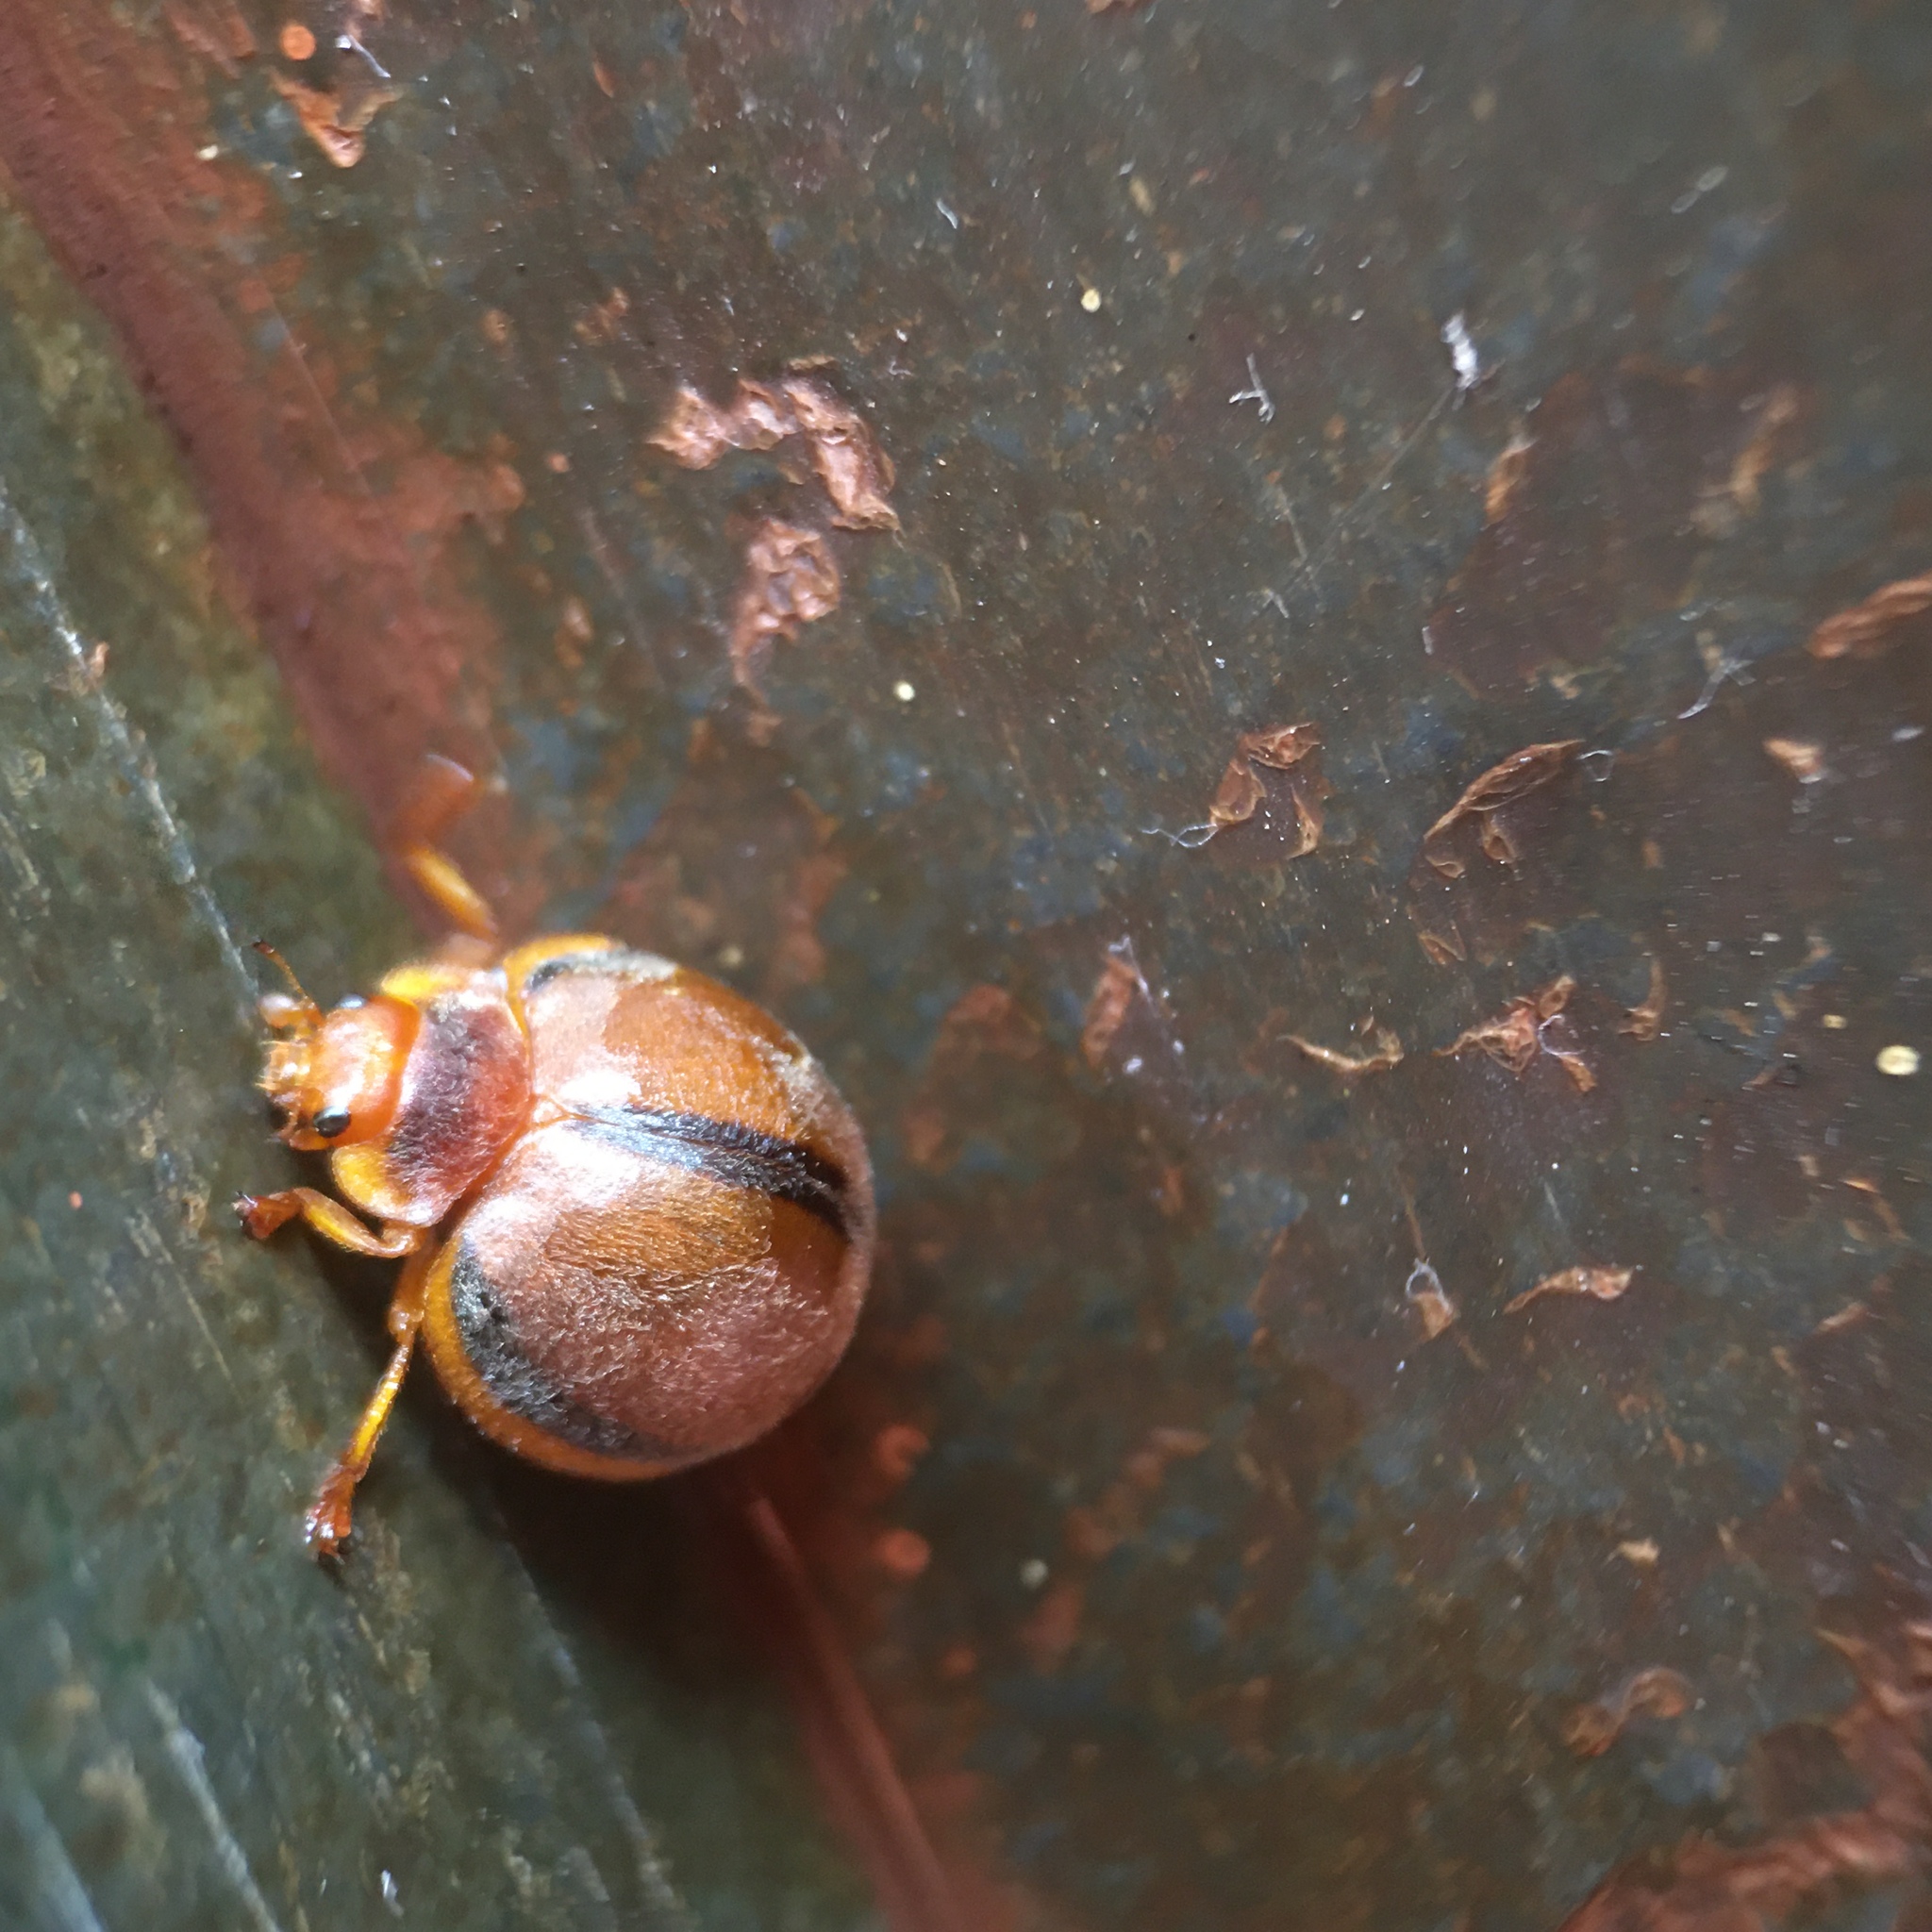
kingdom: Animalia
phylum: Arthropoda
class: Insecta
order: Coleoptera
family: Coccinellidae
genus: Epilachna
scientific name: Epilachna cacica
